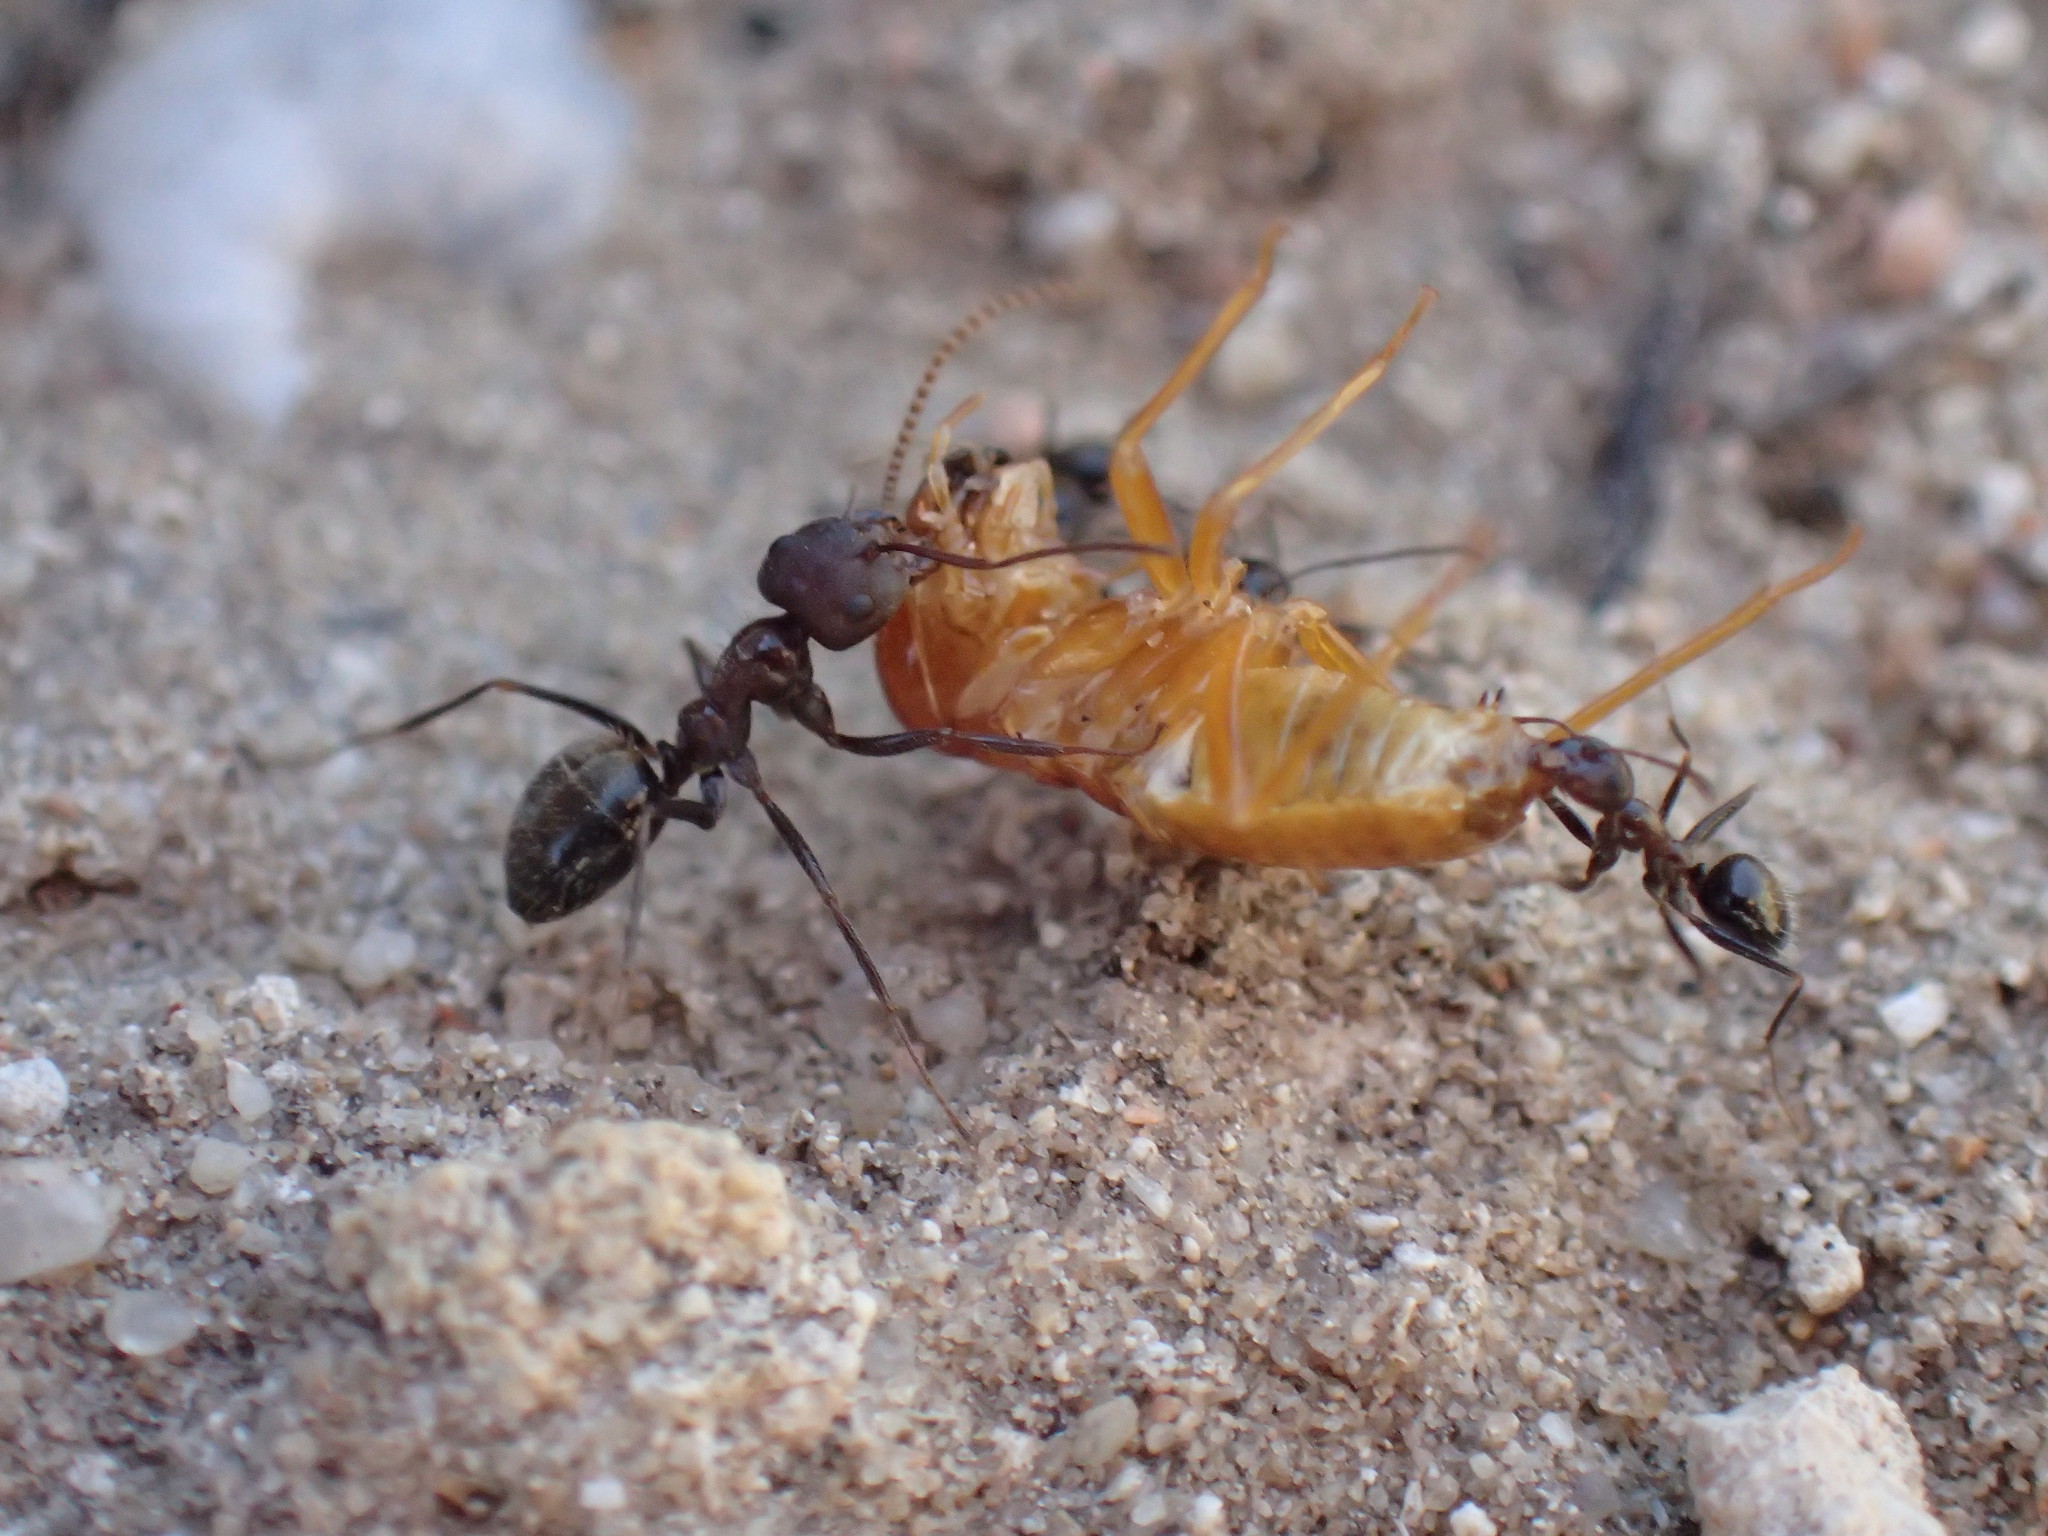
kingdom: Animalia
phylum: Arthropoda
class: Insecta
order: Blattodea
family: Hodotermitidae
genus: Microhodotermes
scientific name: Microhodotermes viator
